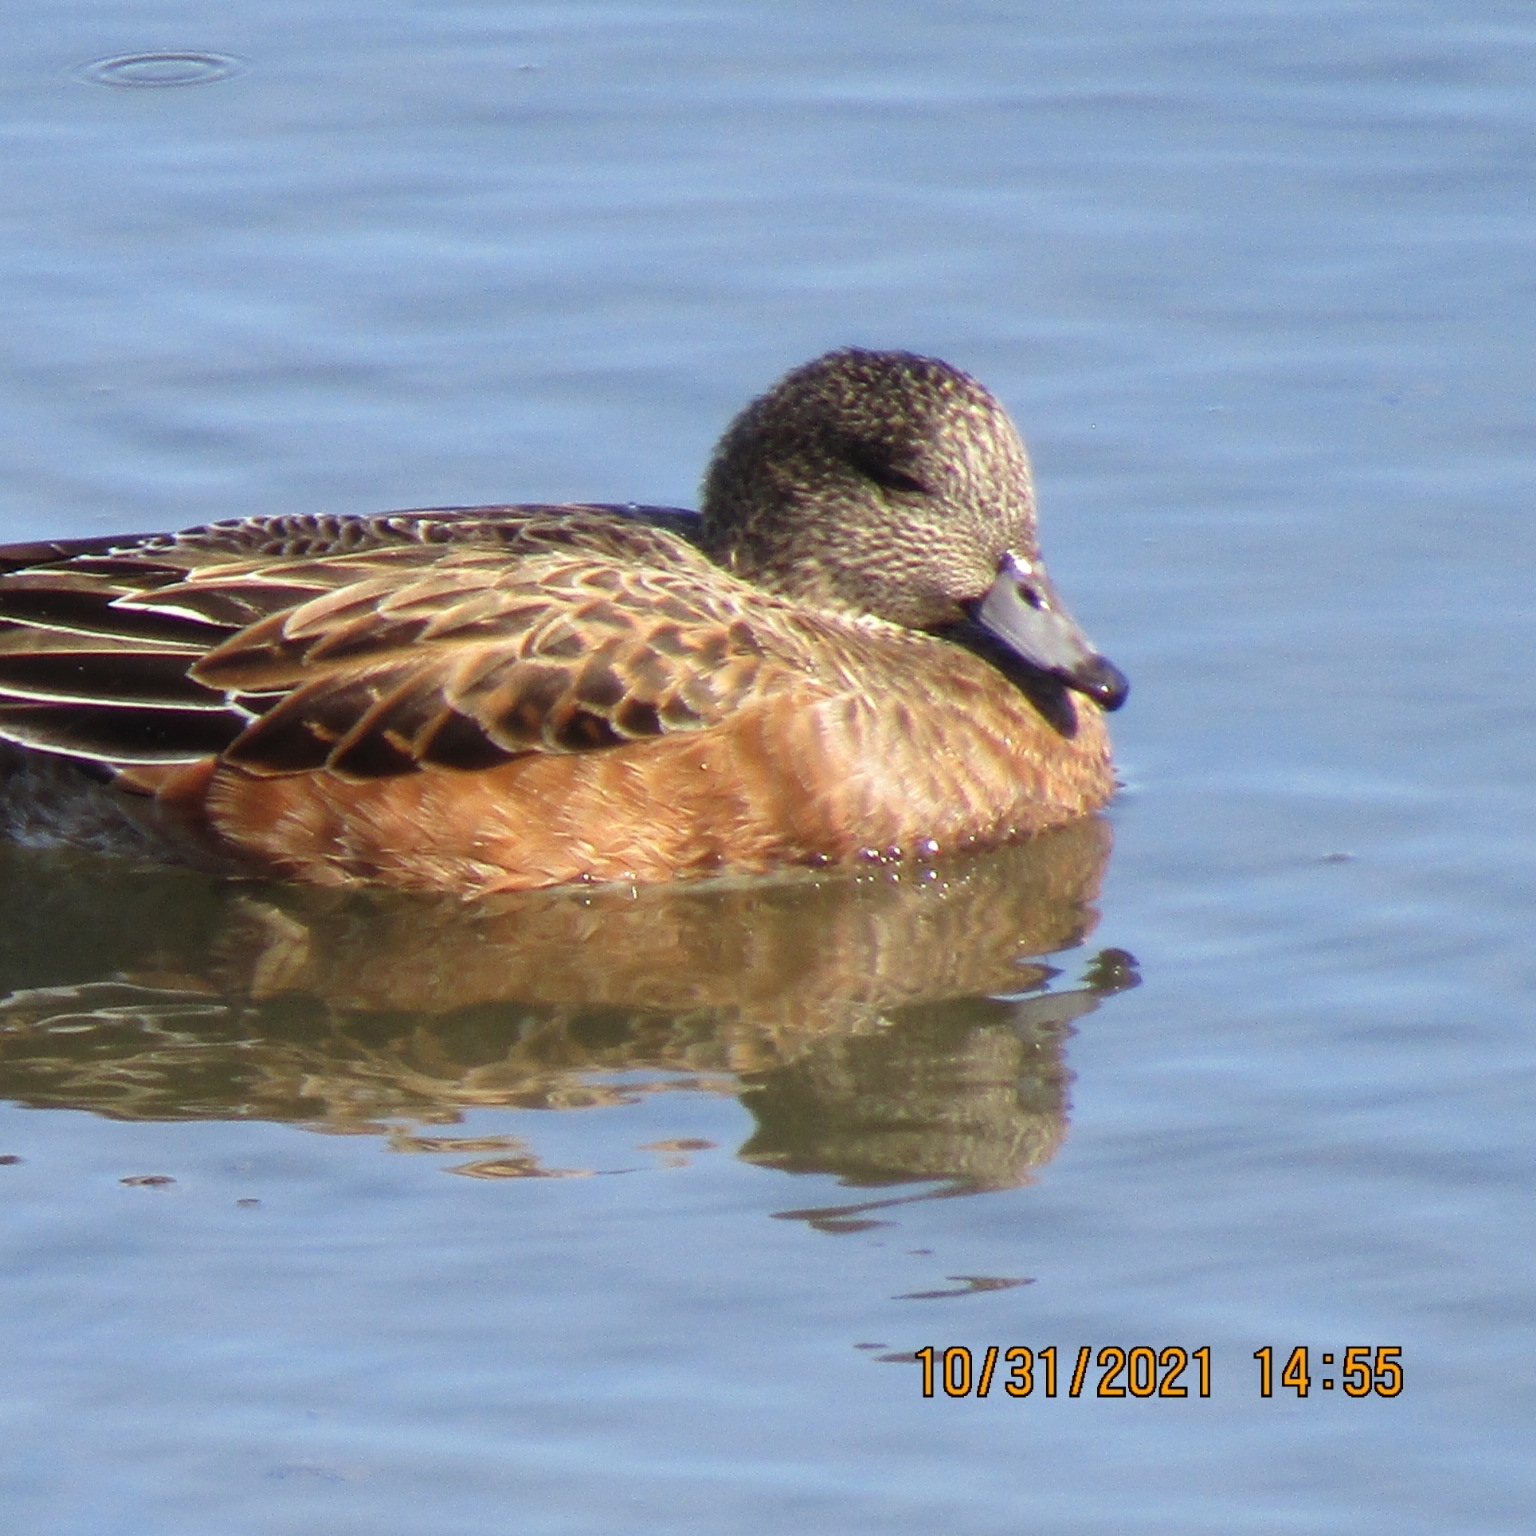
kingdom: Animalia
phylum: Chordata
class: Aves
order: Anseriformes
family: Anatidae
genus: Mareca
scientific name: Mareca americana
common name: American wigeon
